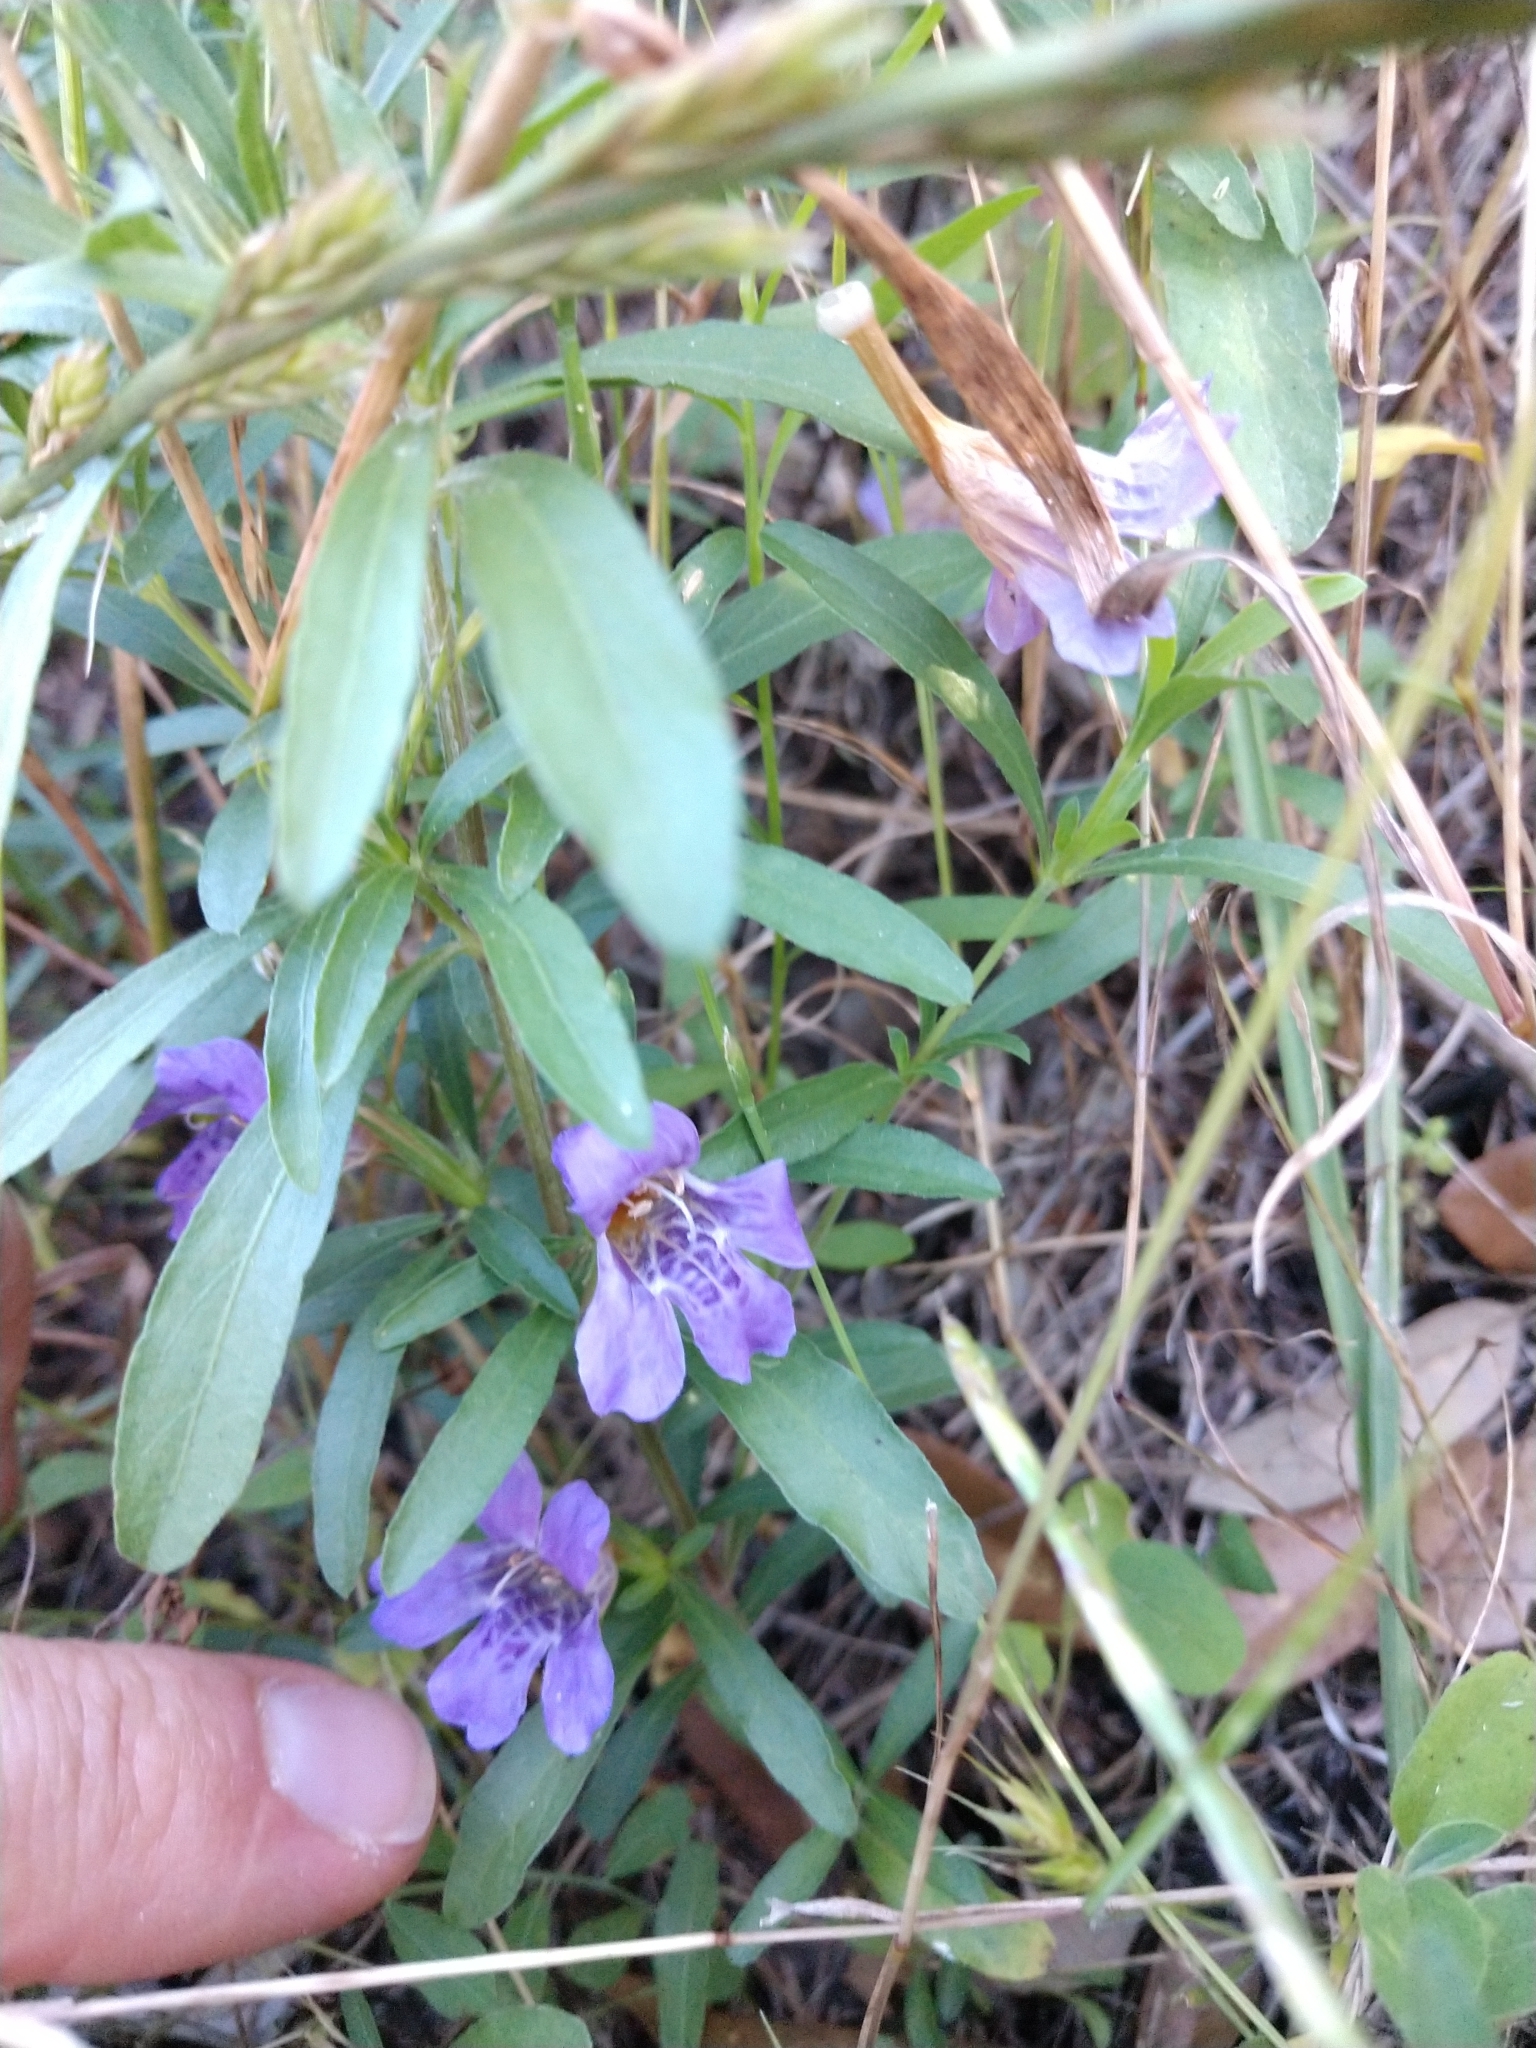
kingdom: Plantae
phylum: Tracheophyta
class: Magnoliopsida
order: Lamiales
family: Acanthaceae
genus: Dyschoriste
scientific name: Dyschoriste linearis
